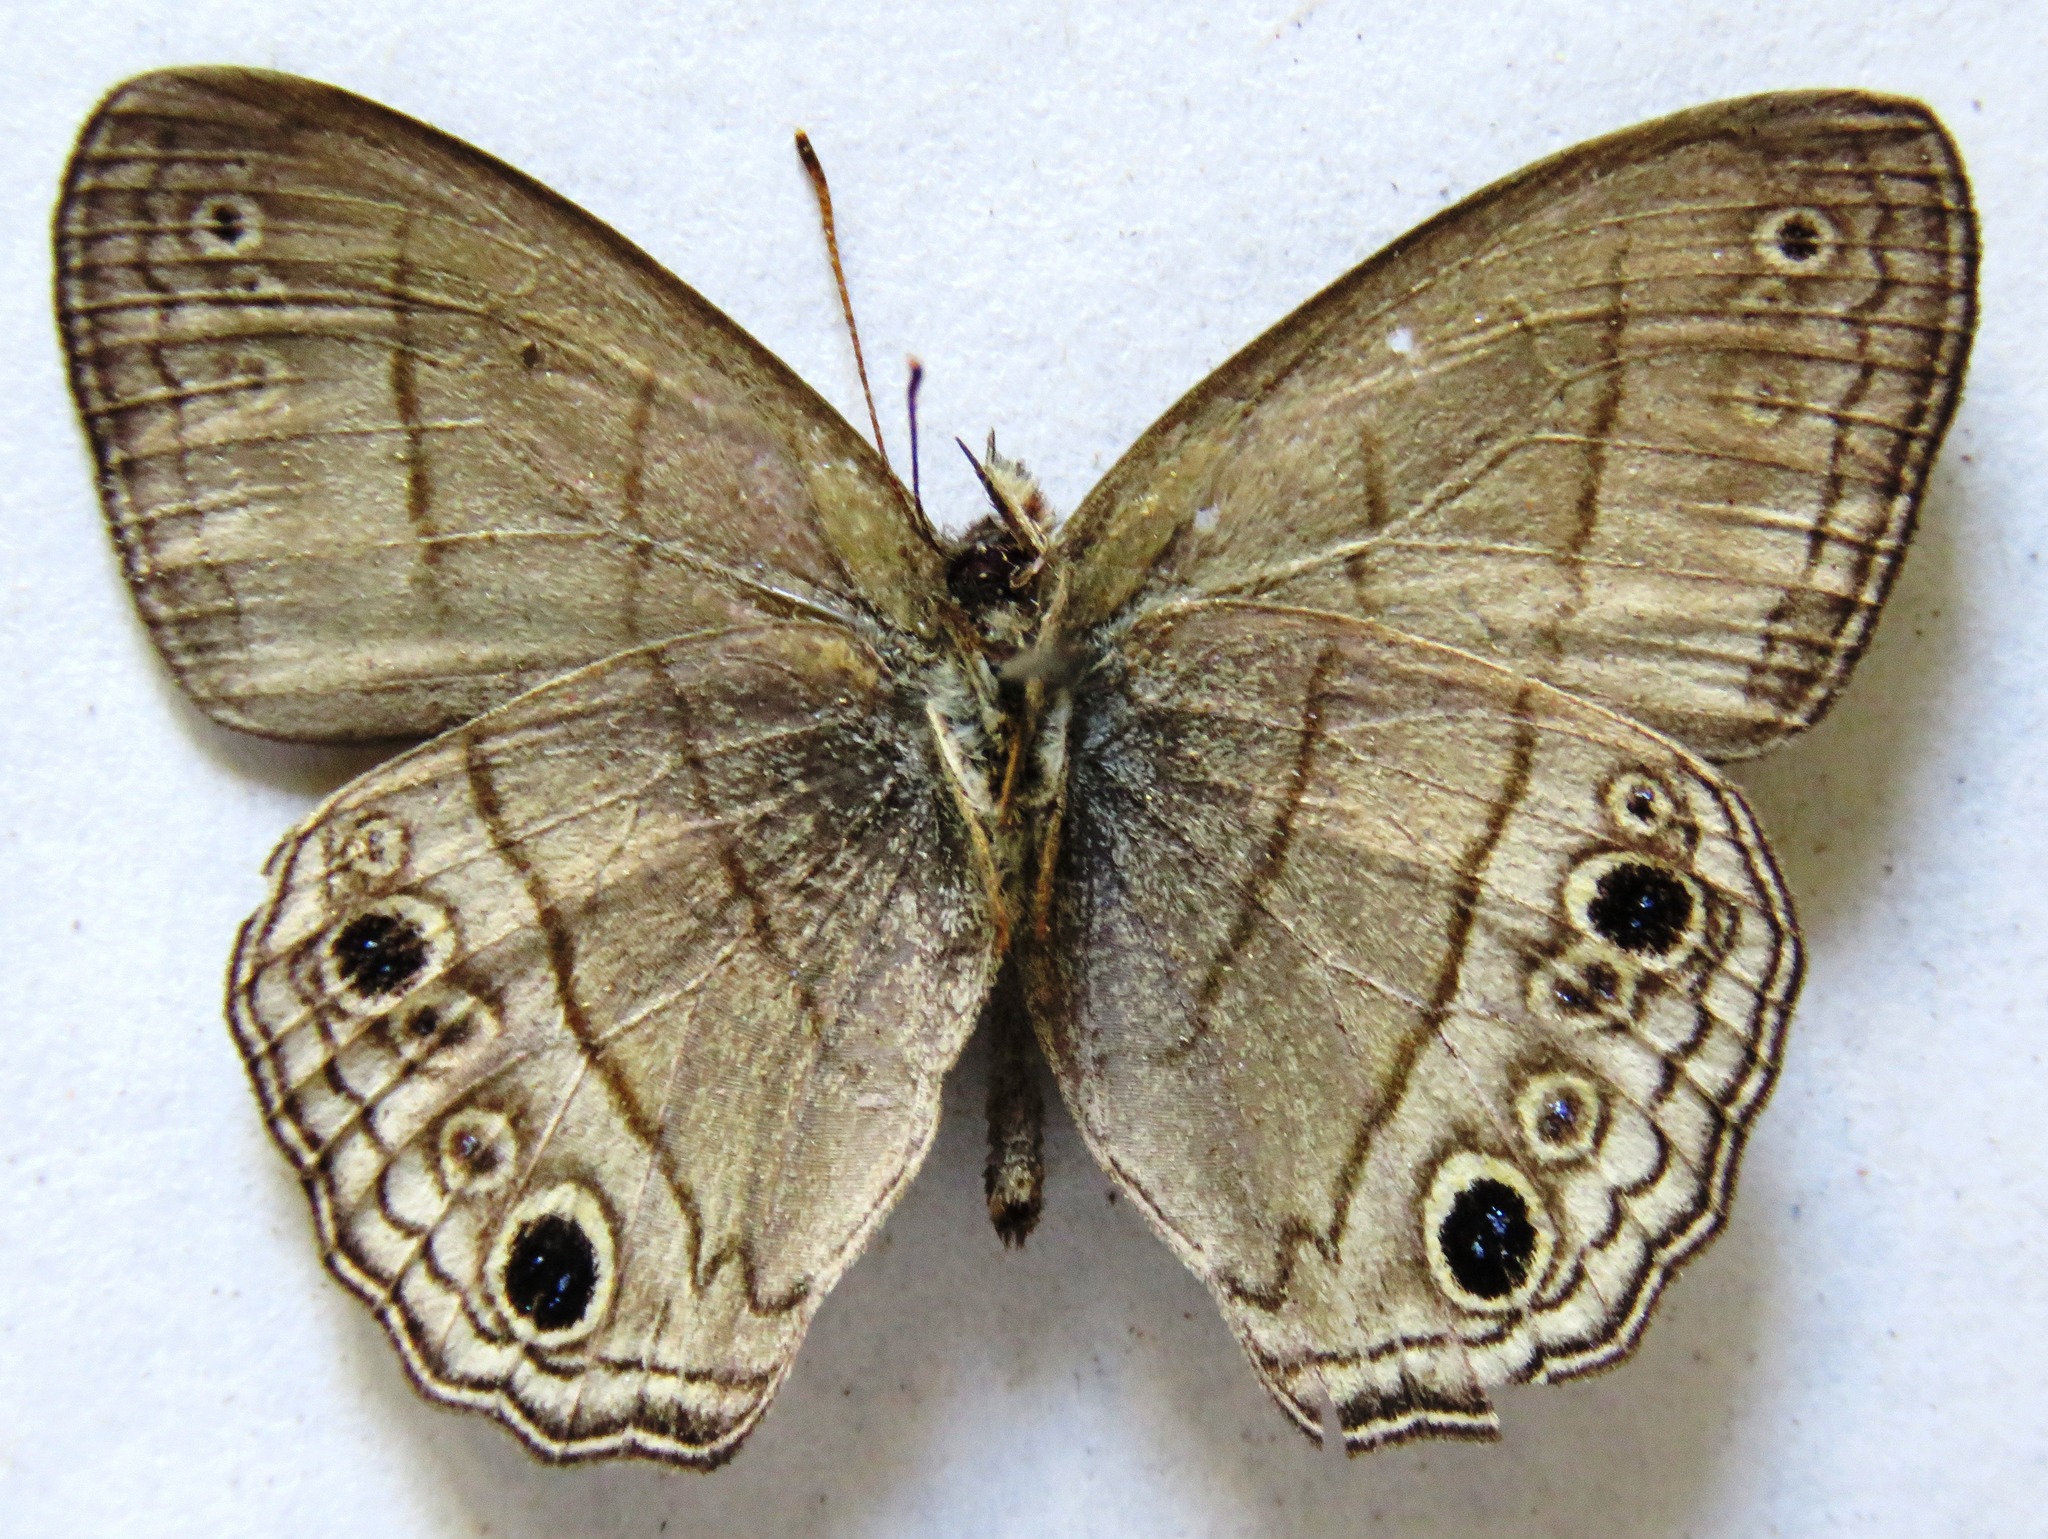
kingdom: Animalia
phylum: Arthropoda
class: Insecta
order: Lepidoptera
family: Nymphalidae
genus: Vareuptychia
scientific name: Vareuptychia similis
